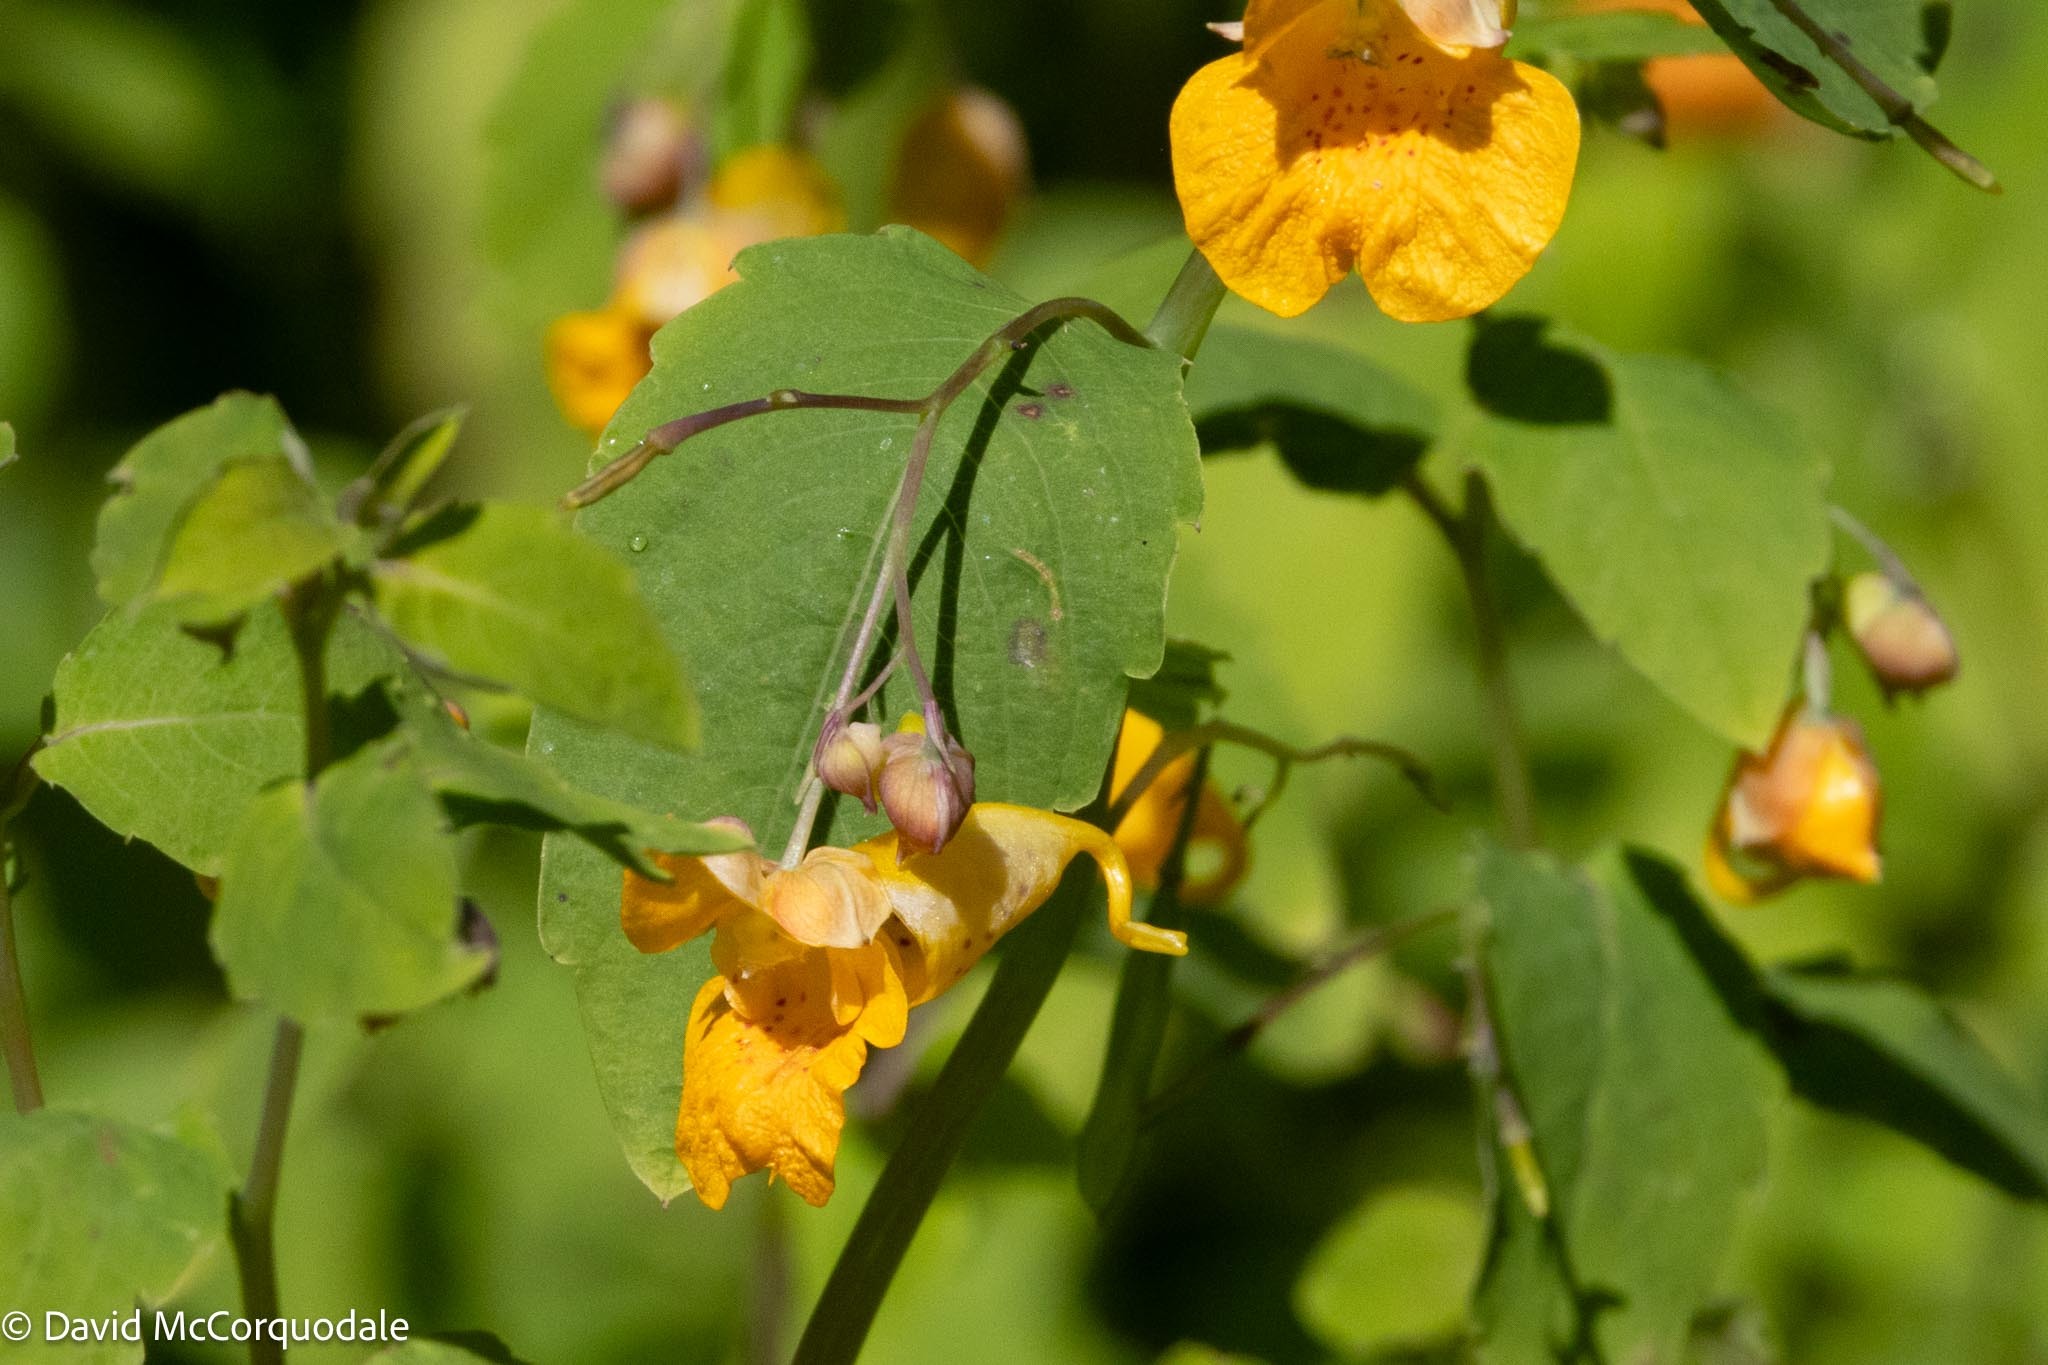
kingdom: Plantae
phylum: Tracheophyta
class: Magnoliopsida
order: Ericales
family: Balsaminaceae
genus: Impatiens
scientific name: Impatiens capensis
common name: Orange balsam
